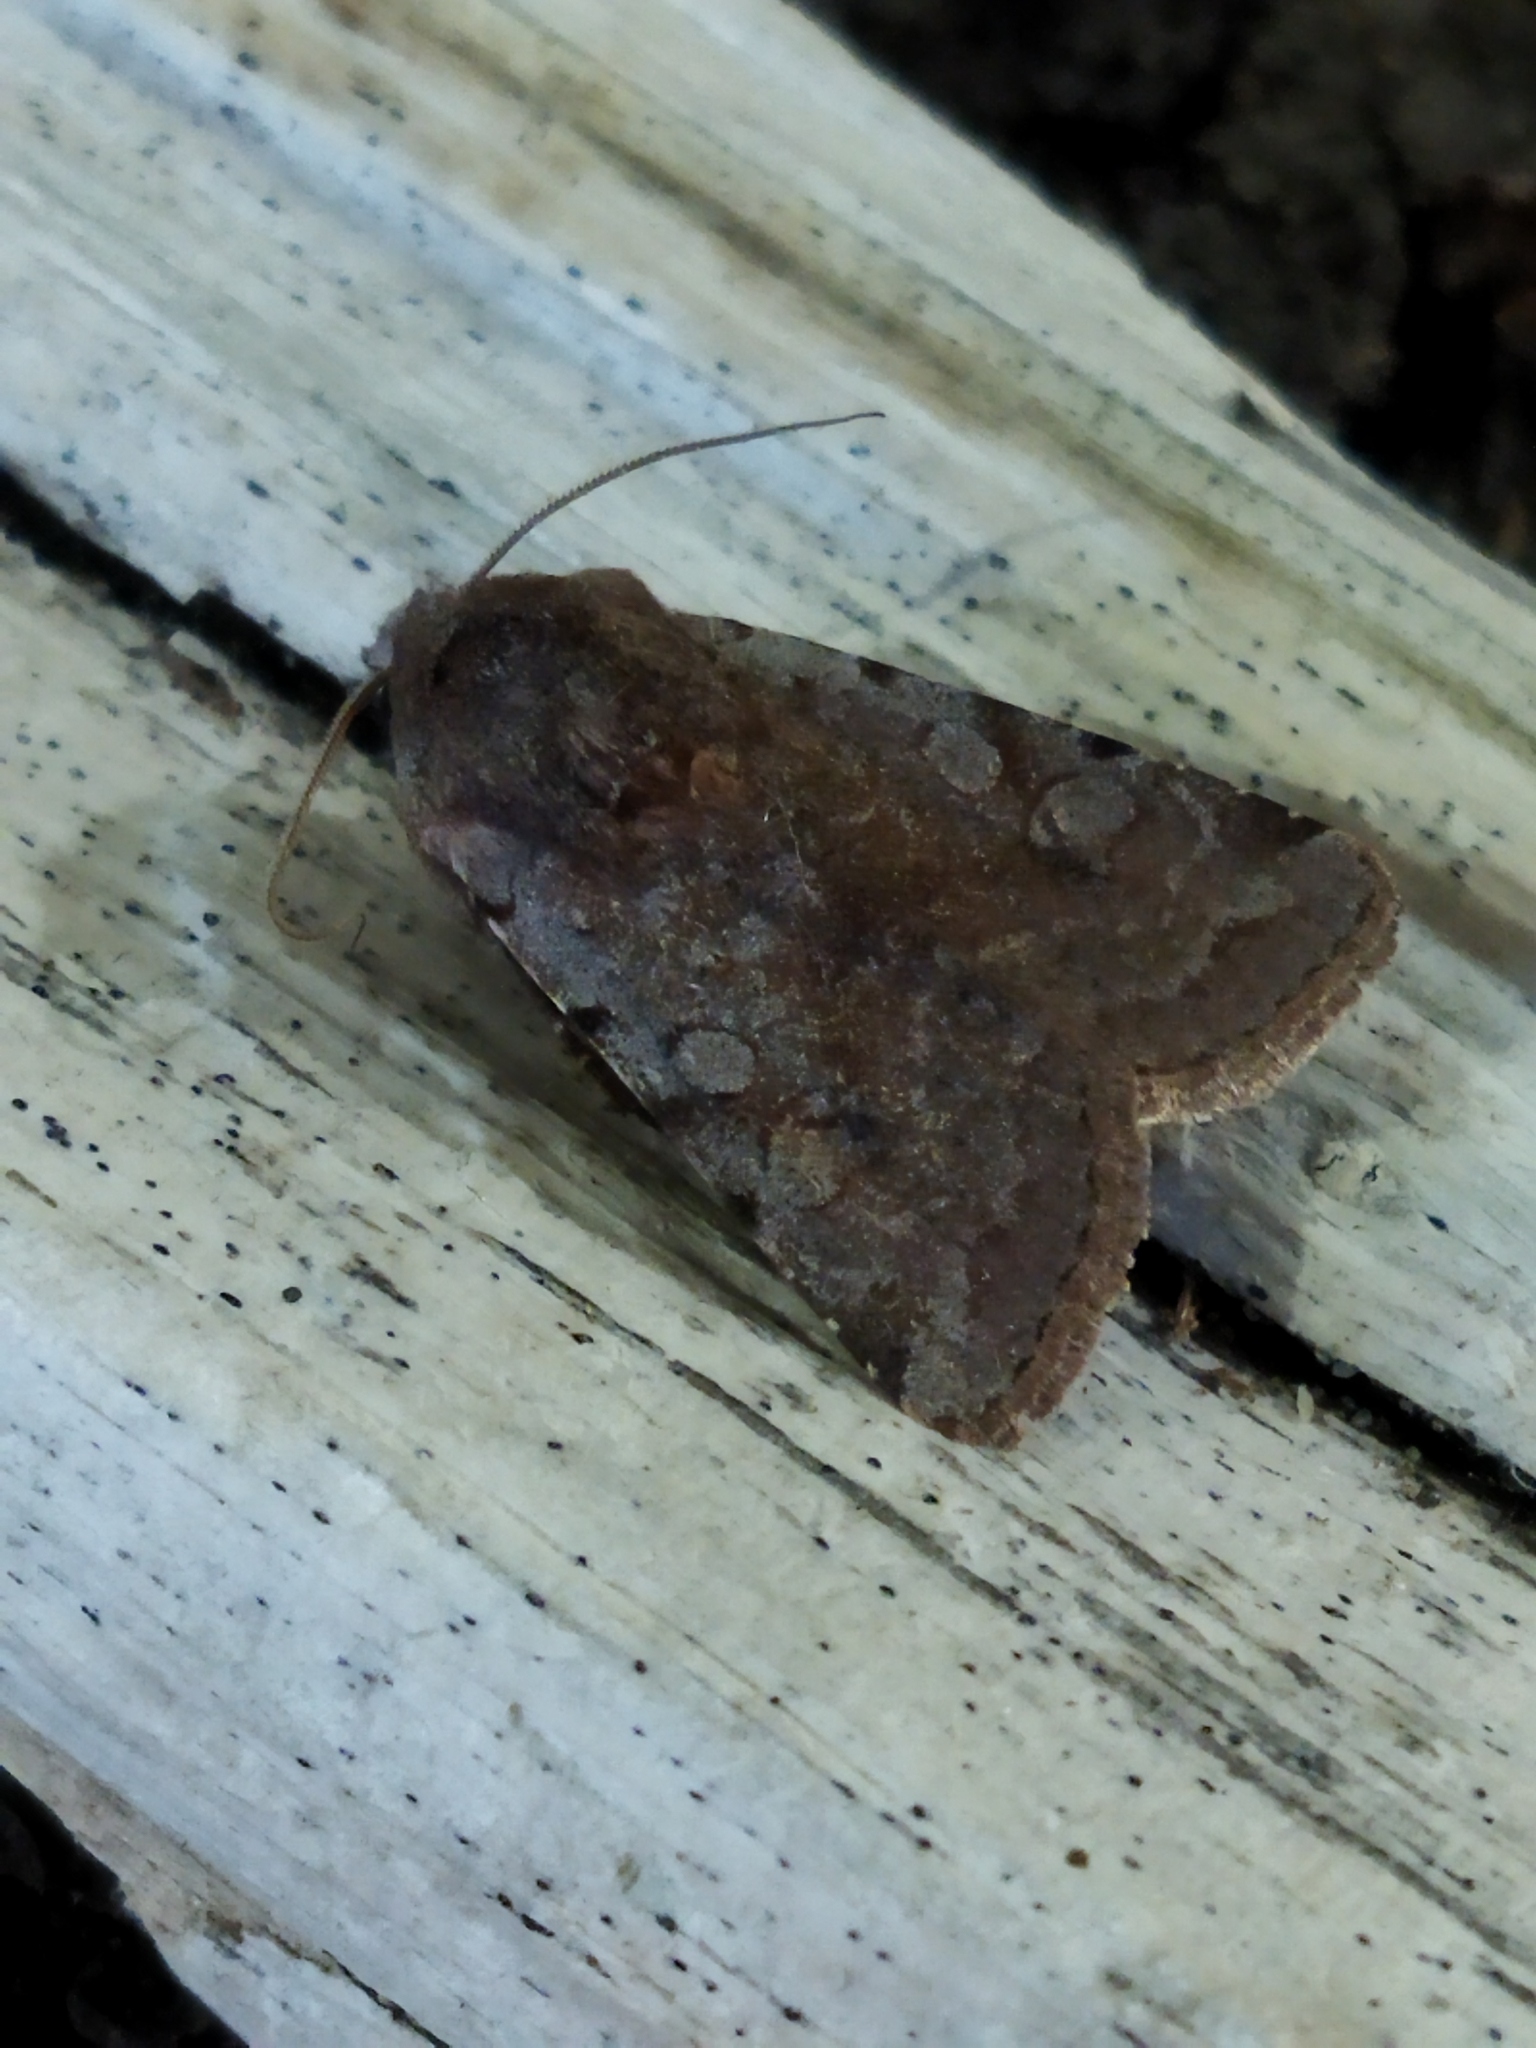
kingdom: Animalia
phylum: Arthropoda
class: Insecta
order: Lepidoptera
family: Noctuidae
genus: Cerastis
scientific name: Cerastis rubricosa
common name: Red chestnut
